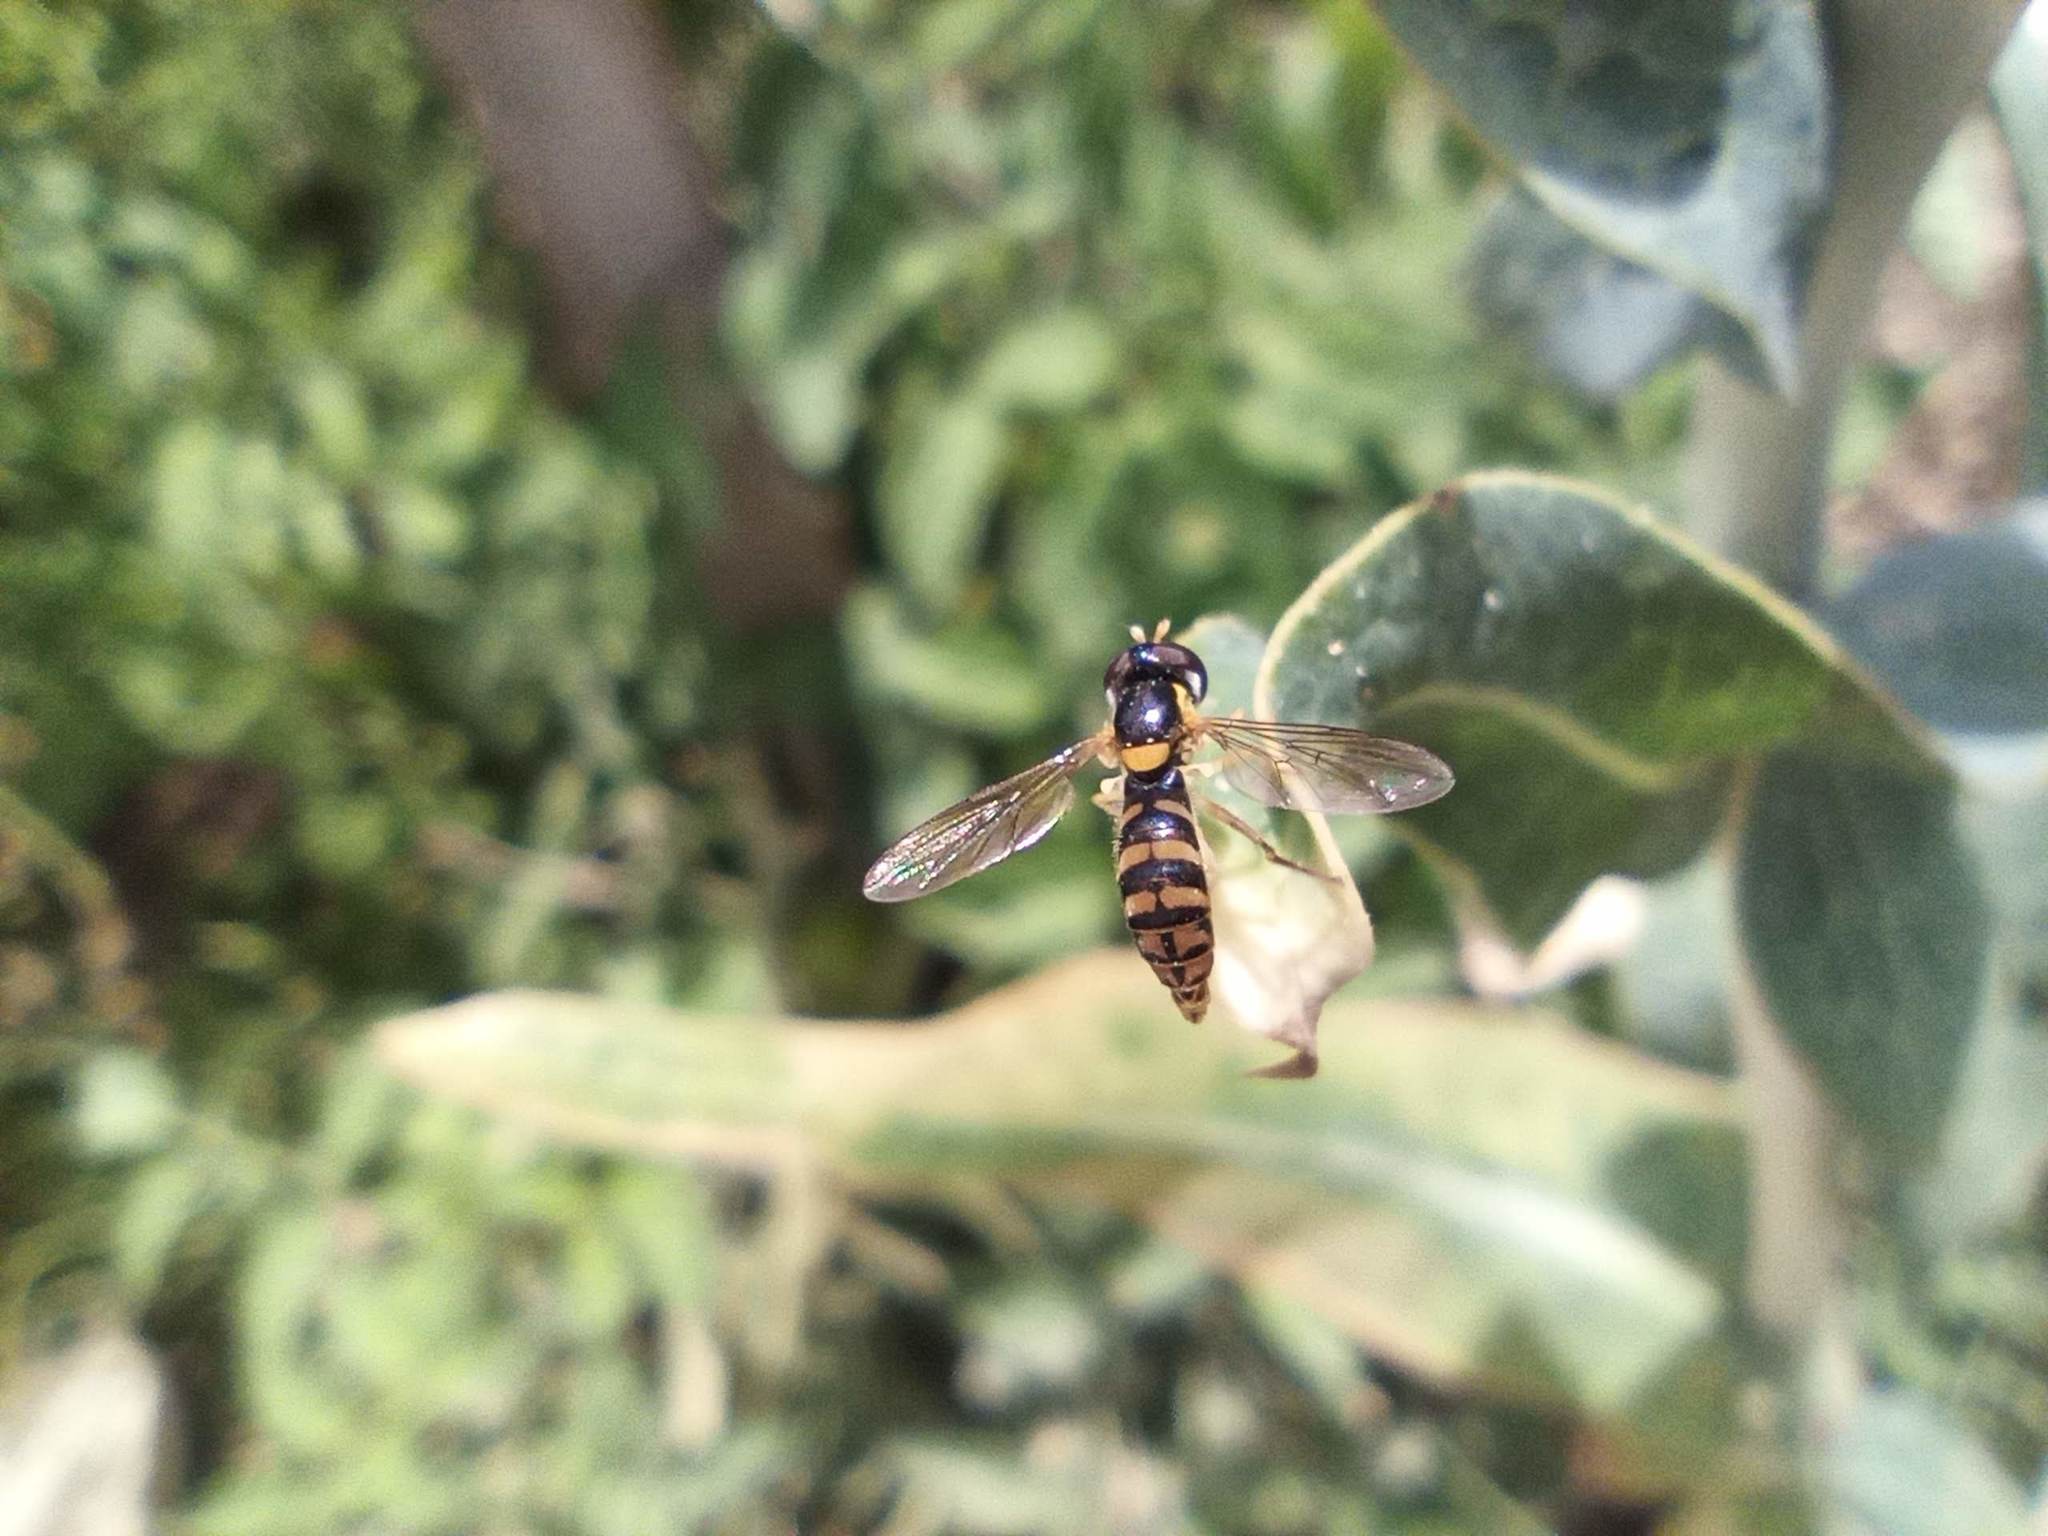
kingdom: Animalia
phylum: Arthropoda
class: Insecta
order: Diptera
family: Syrphidae
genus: Sphaerophoria
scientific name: Sphaerophoria rueppellii
